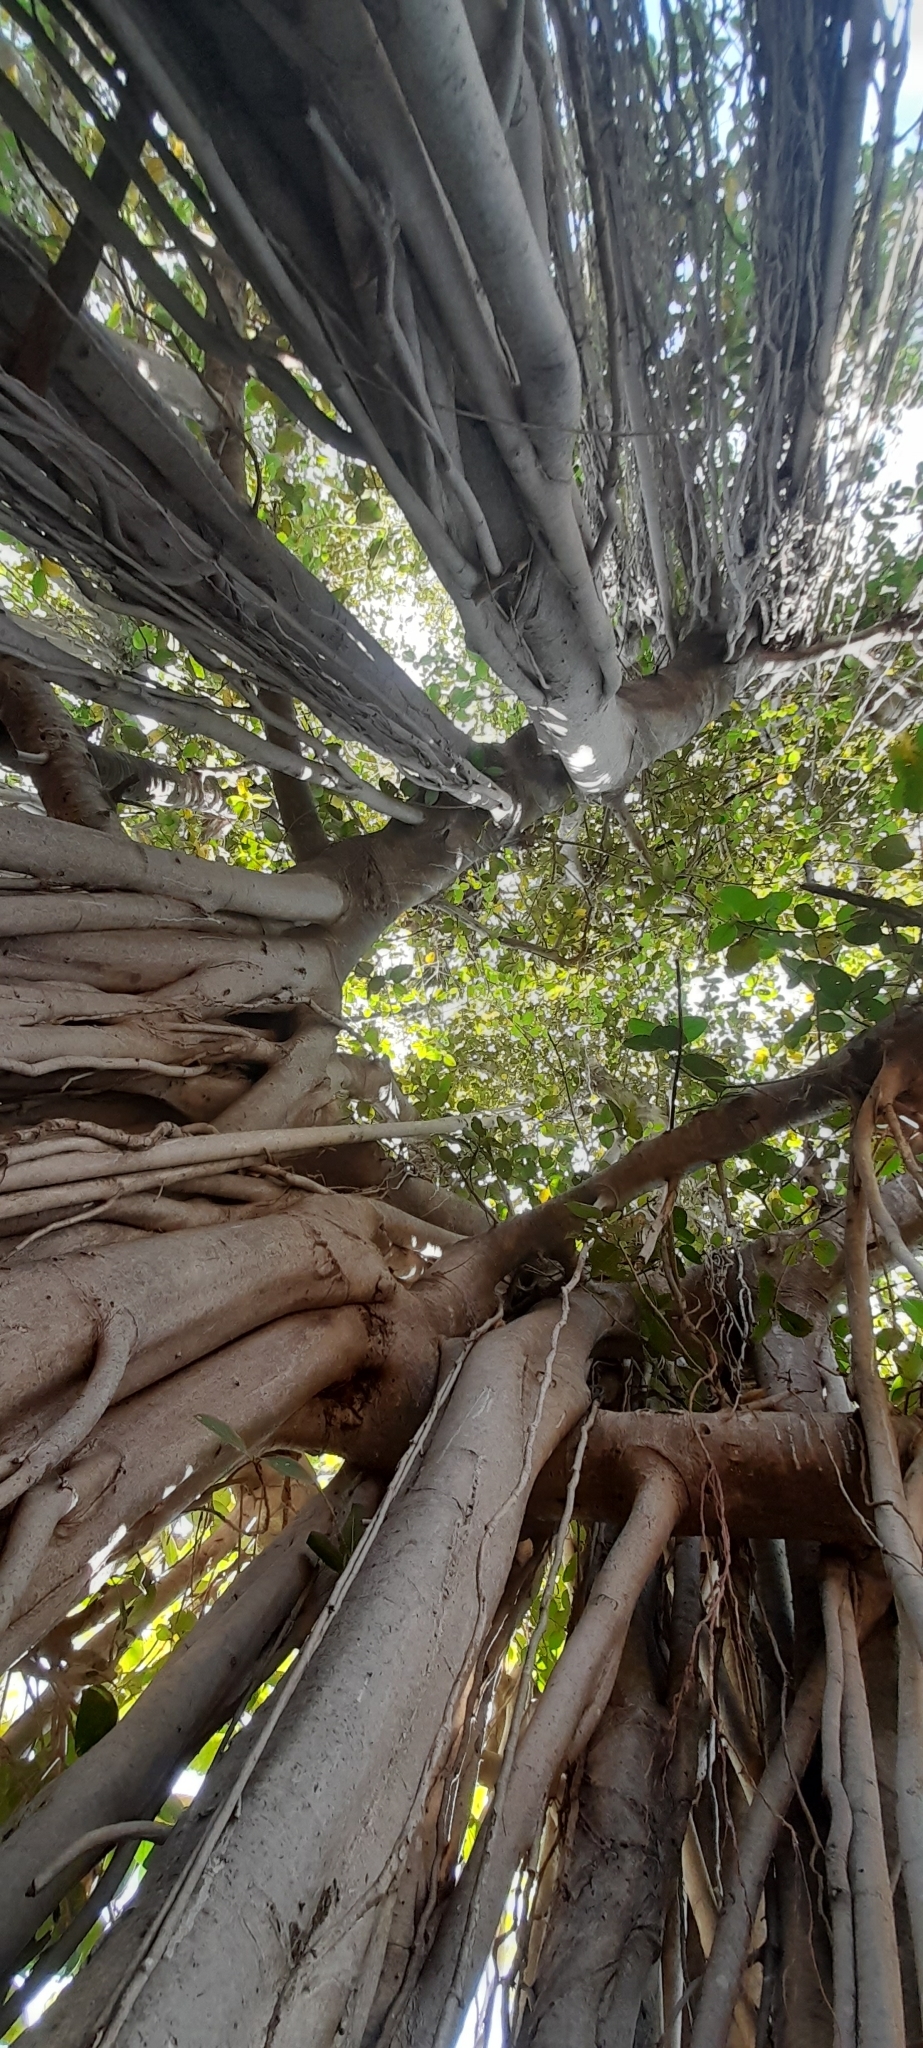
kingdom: Plantae
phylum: Tracheophyta
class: Magnoliopsida
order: Rosales
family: Moraceae
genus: Ficus
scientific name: Ficus benghalensis
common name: Indian banyan
